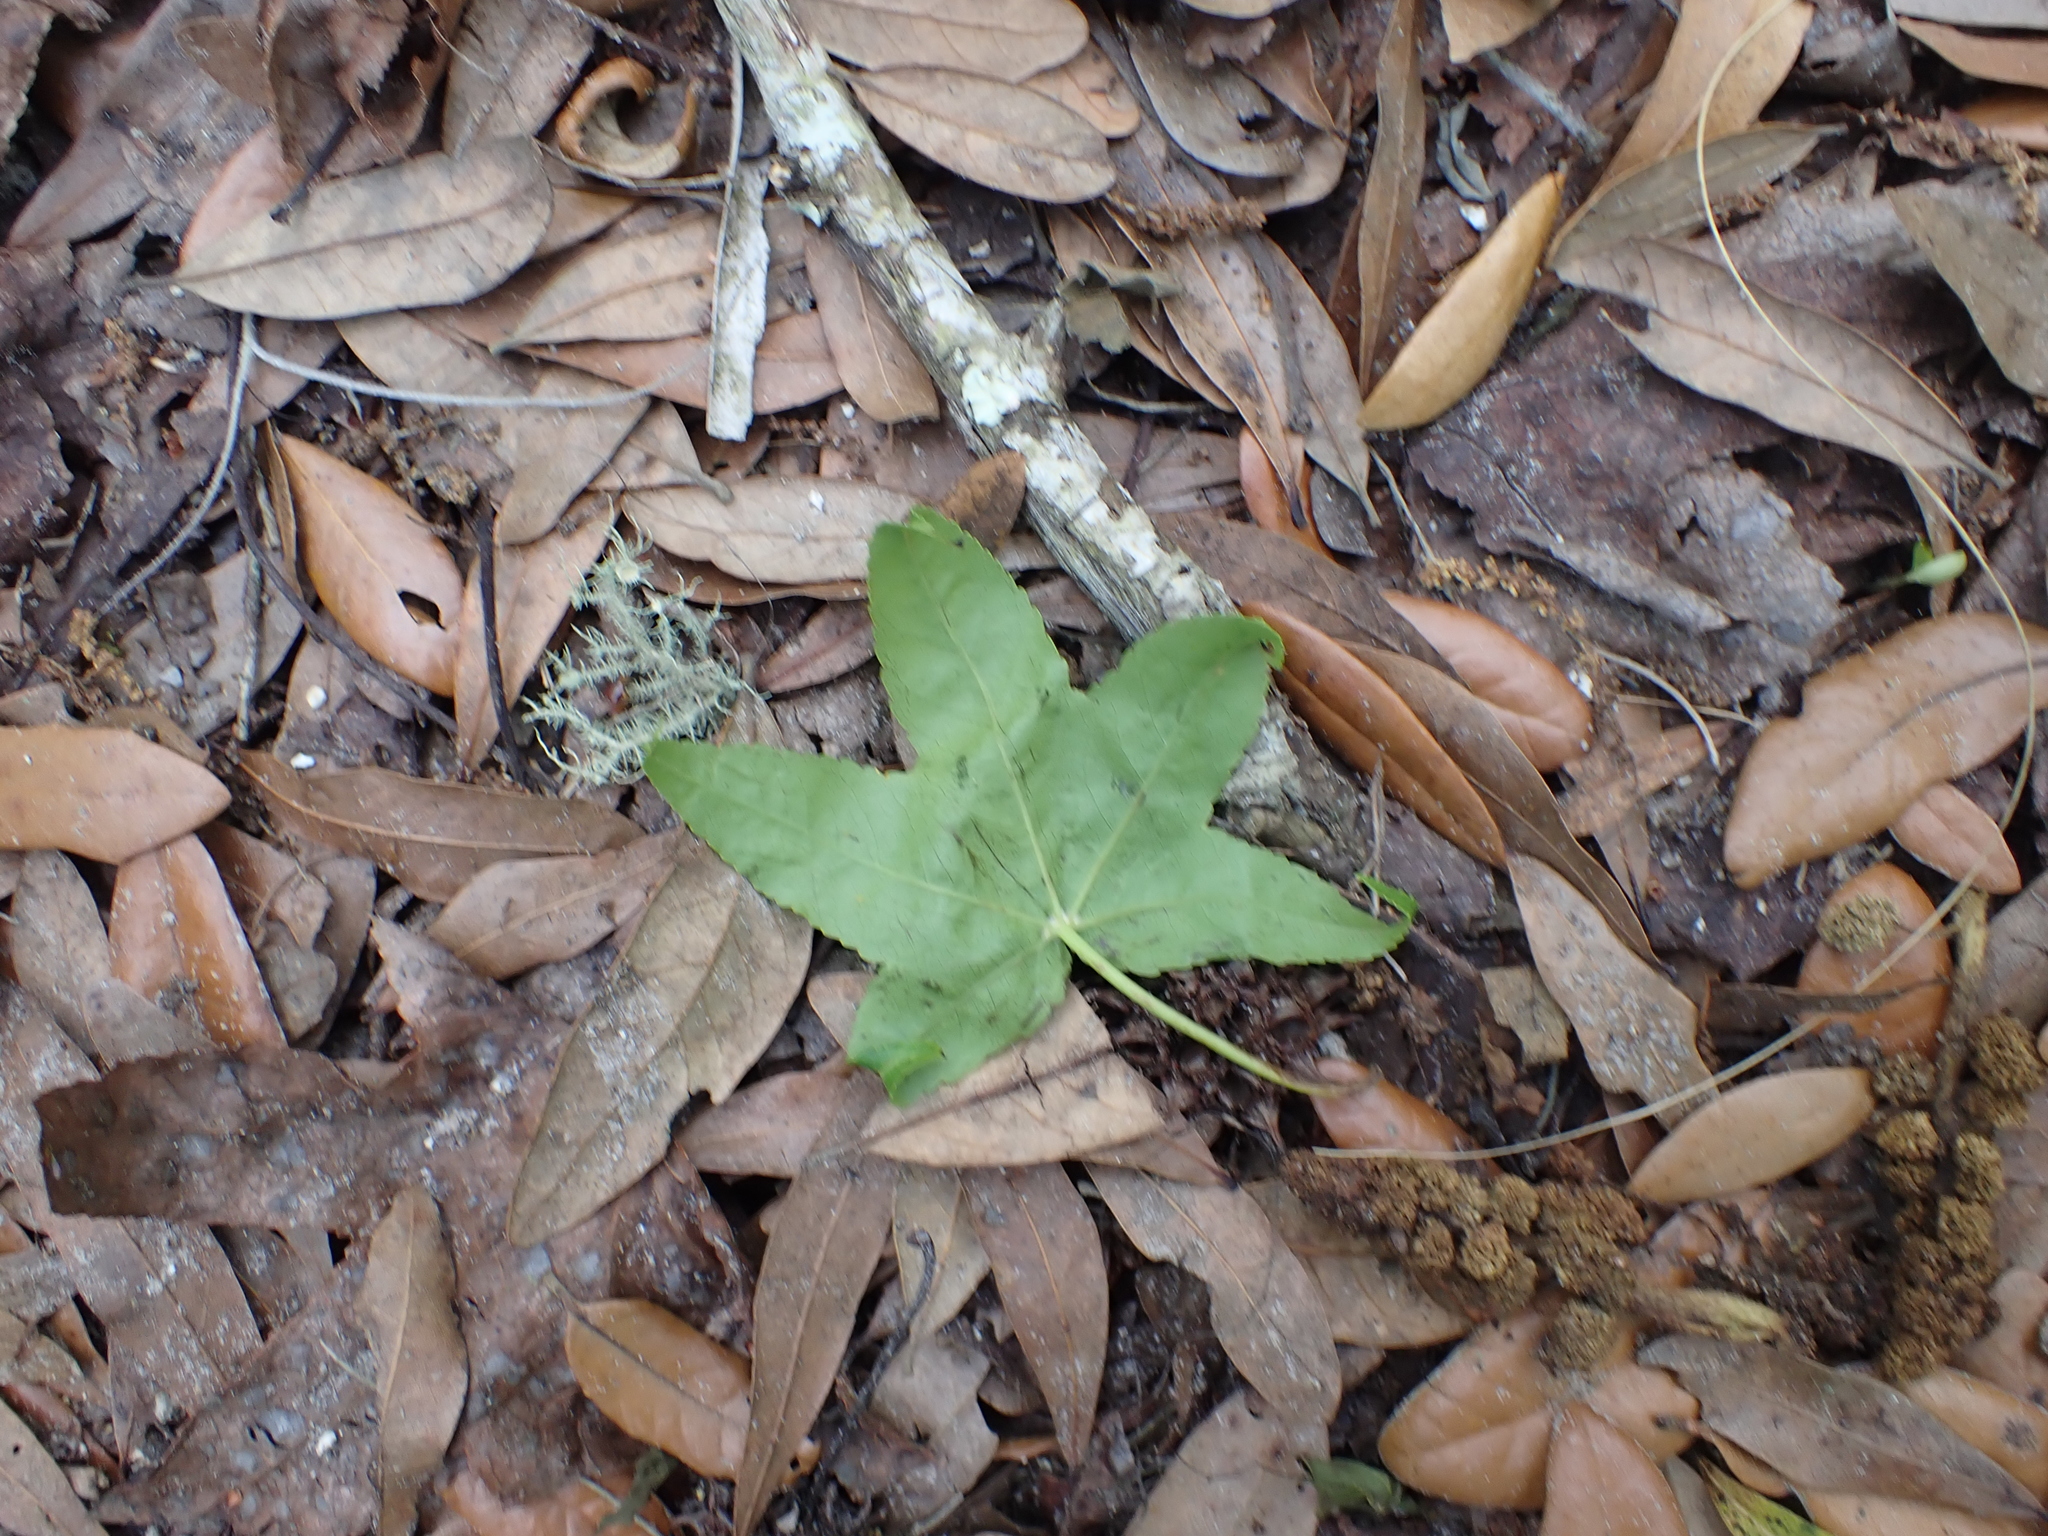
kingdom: Plantae
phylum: Tracheophyta
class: Magnoliopsida
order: Saxifragales
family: Altingiaceae
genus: Liquidambar
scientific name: Liquidambar styraciflua
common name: Sweet gum
